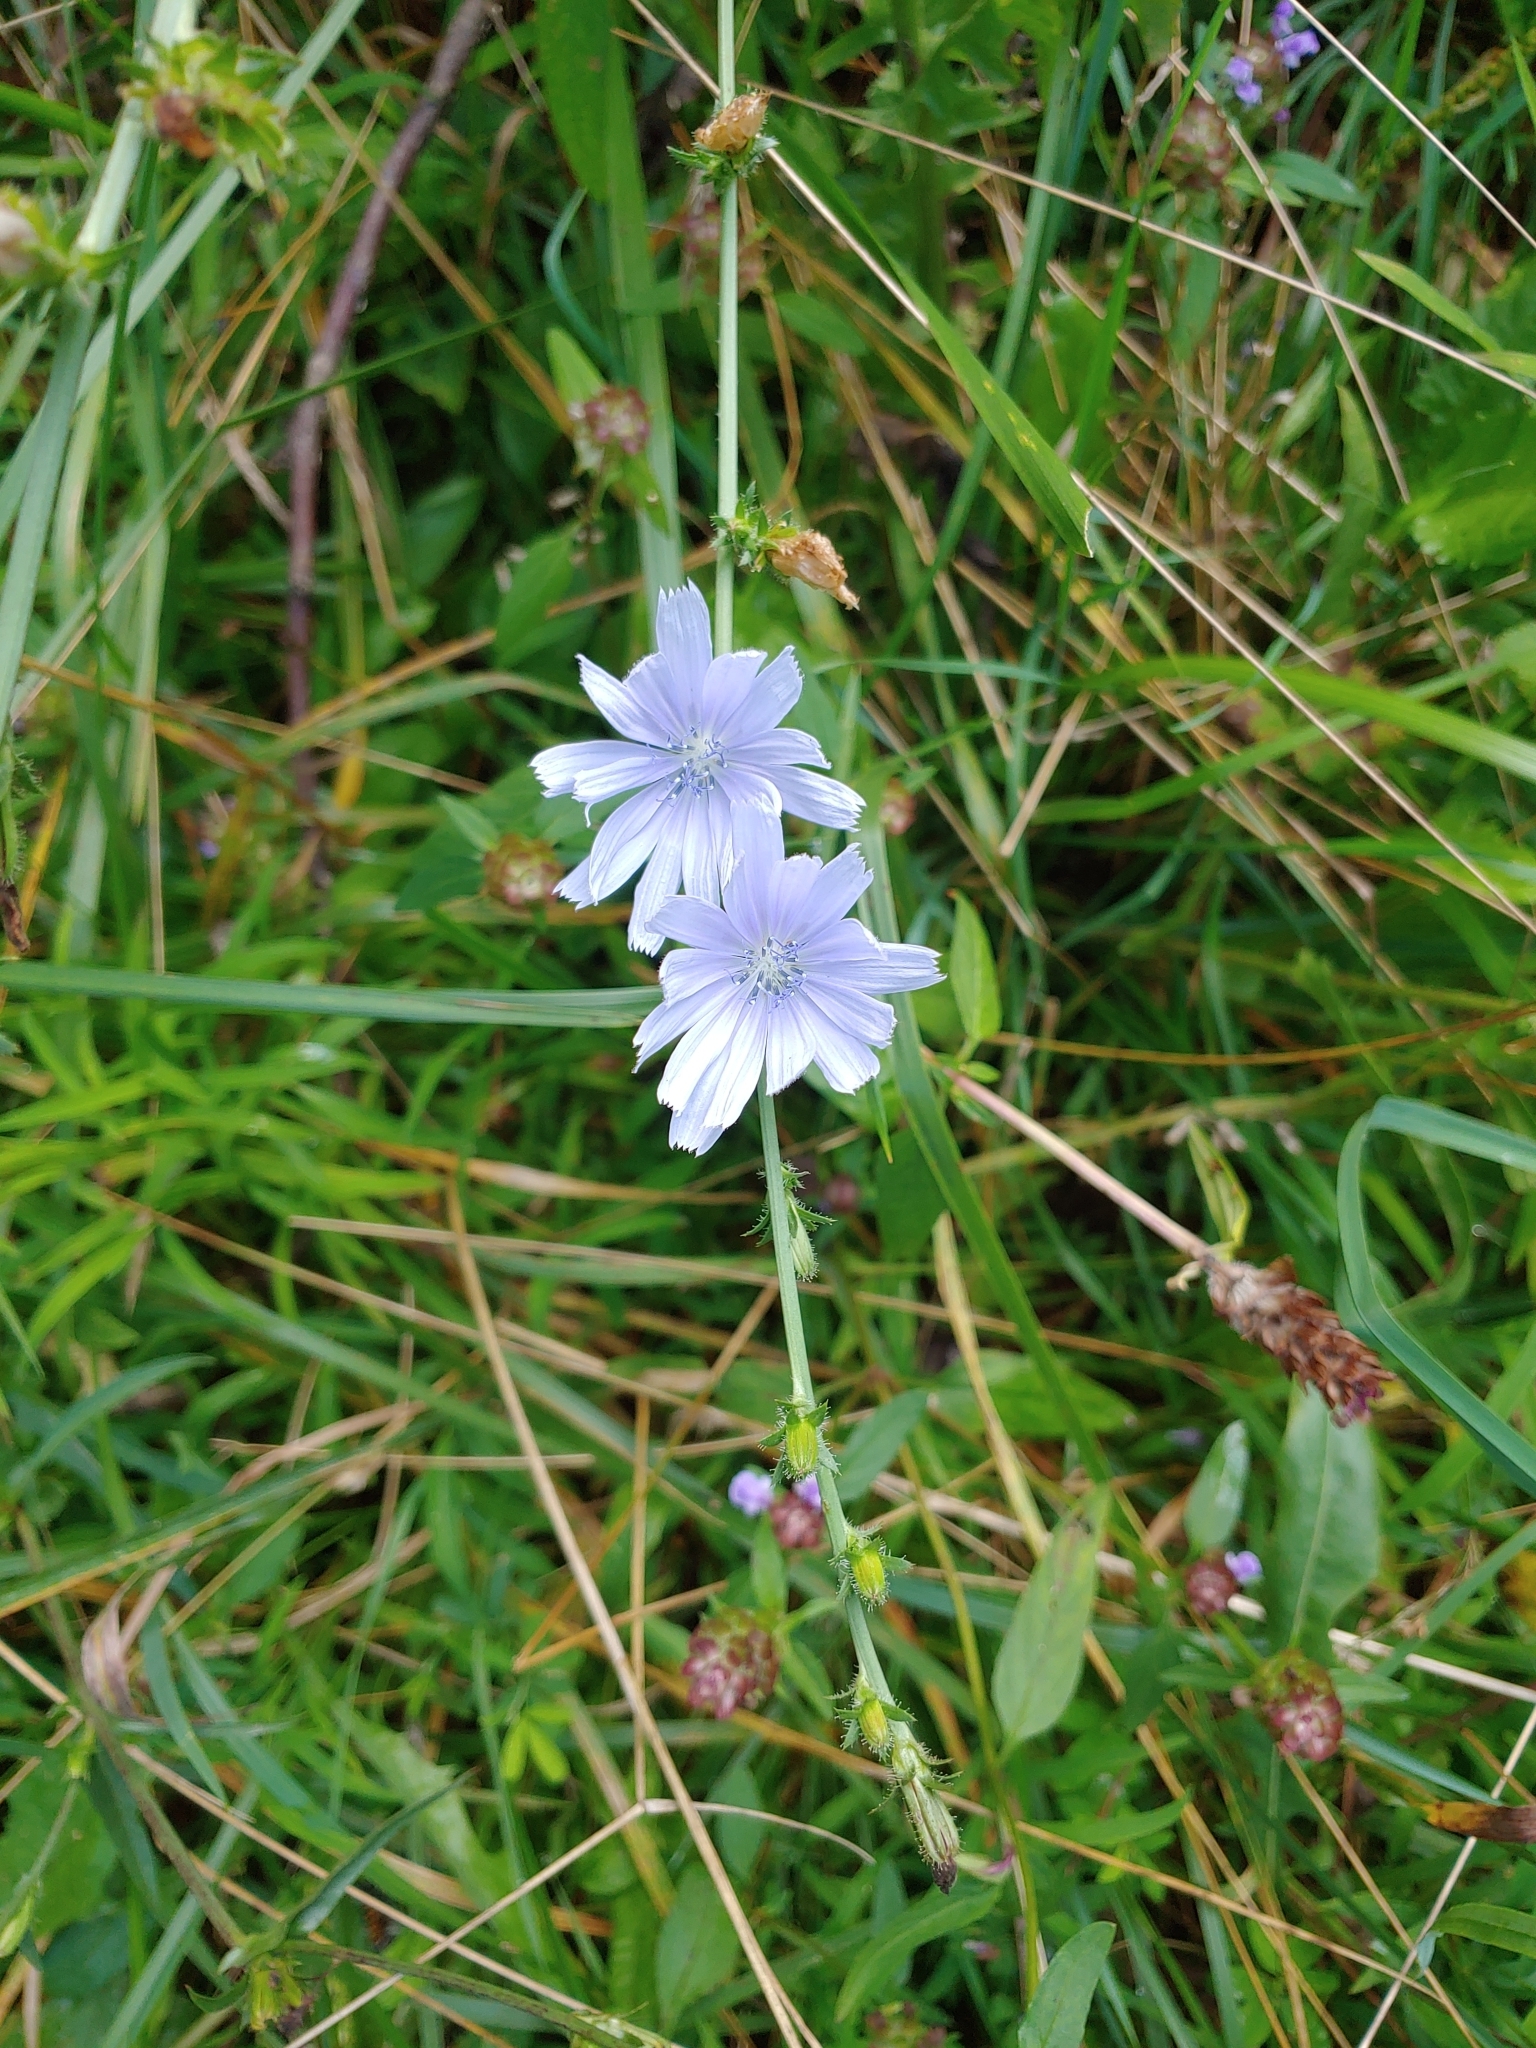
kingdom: Plantae
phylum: Tracheophyta
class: Magnoliopsida
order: Asterales
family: Asteraceae
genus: Cichorium
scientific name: Cichorium intybus
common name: Chicory
